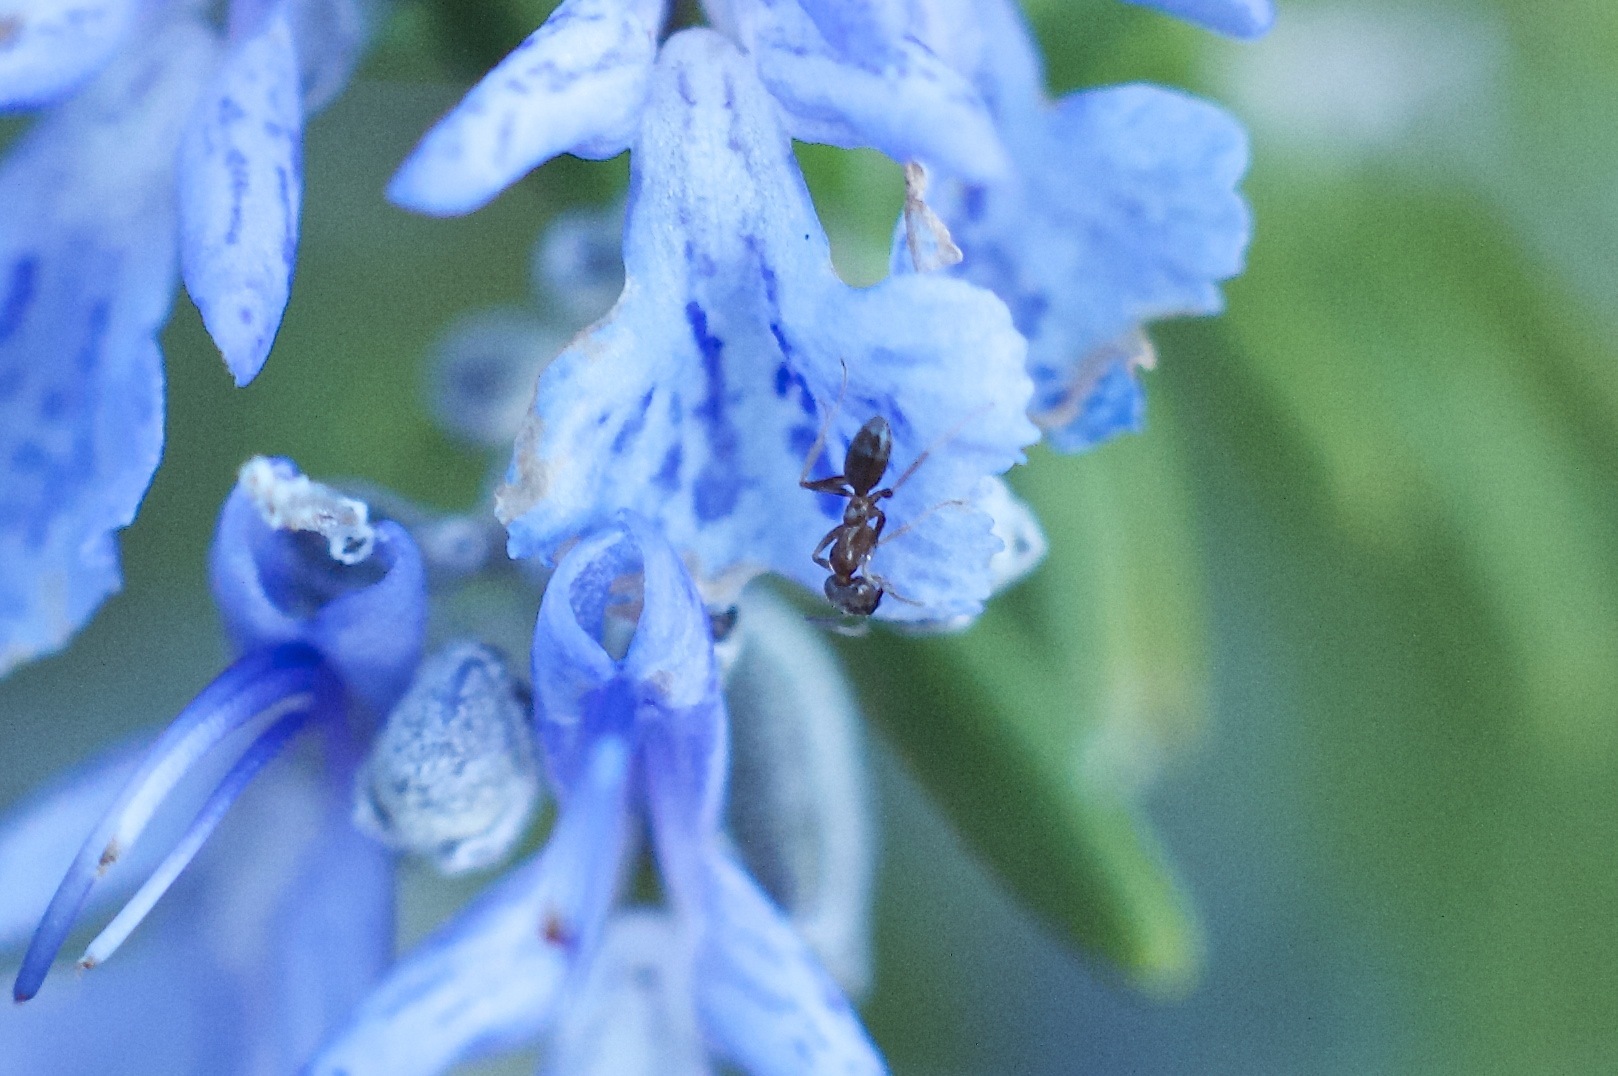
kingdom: Animalia
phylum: Arthropoda
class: Insecta
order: Hymenoptera
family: Formicidae
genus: Linepithema
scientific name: Linepithema humile
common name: Argentine ant
